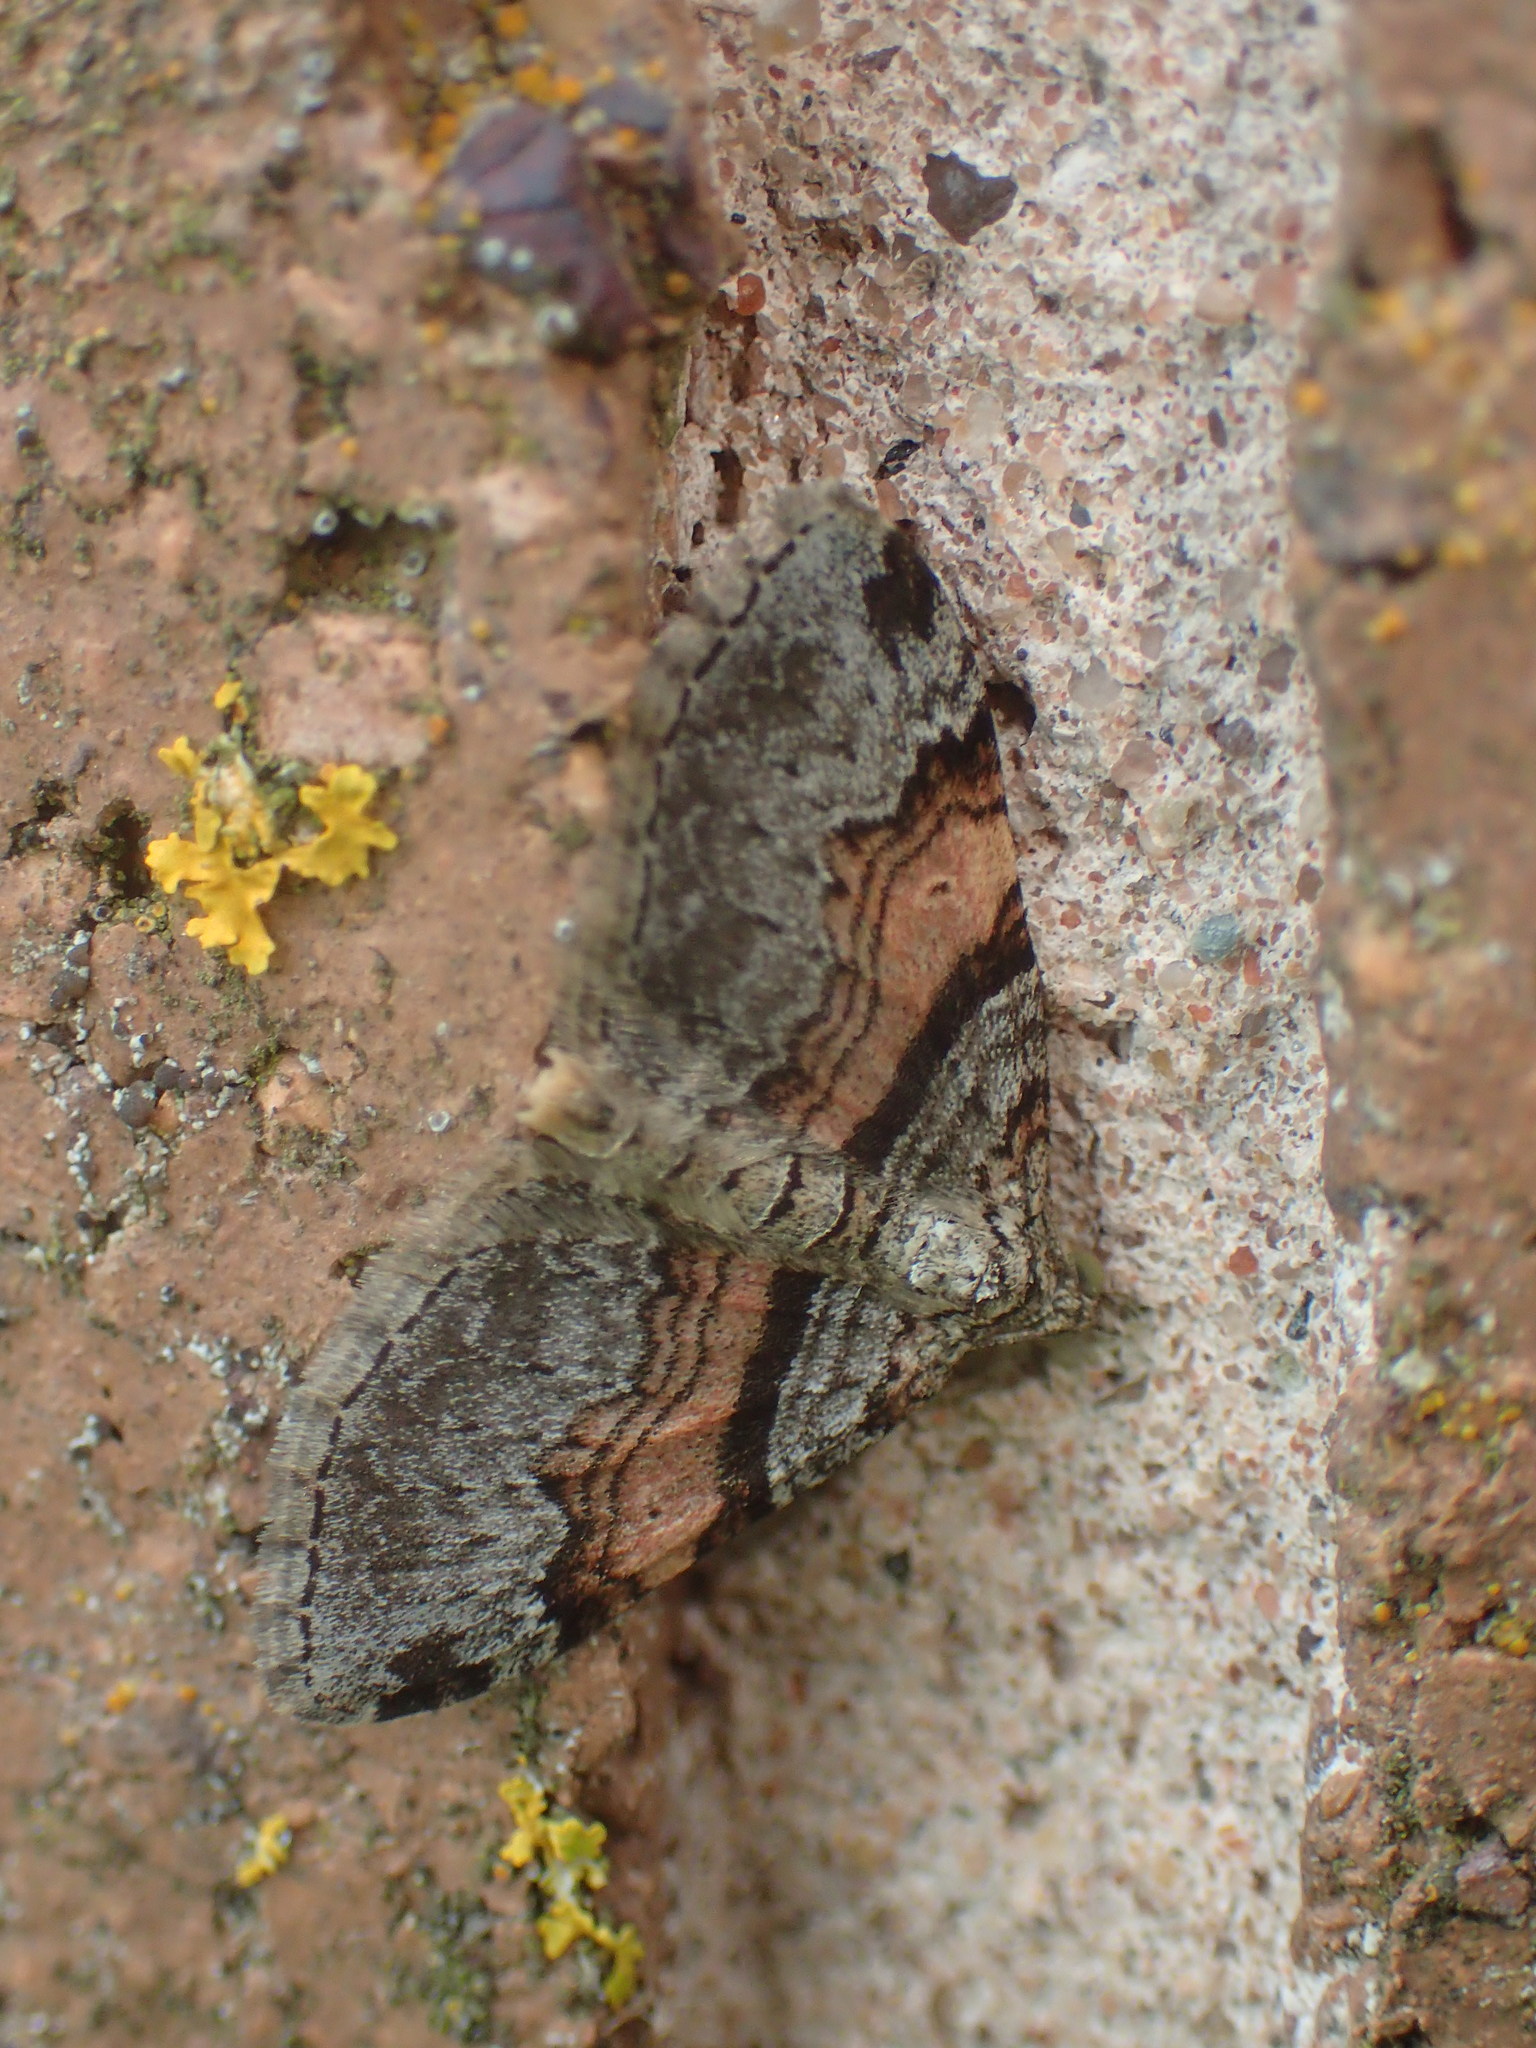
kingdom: Animalia
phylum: Arthropoda
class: Insecta
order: Lepidoptera
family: Geometridae
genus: Xanthorhoe
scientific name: Xanthorhoe labradorensis
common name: Labrador carpet
